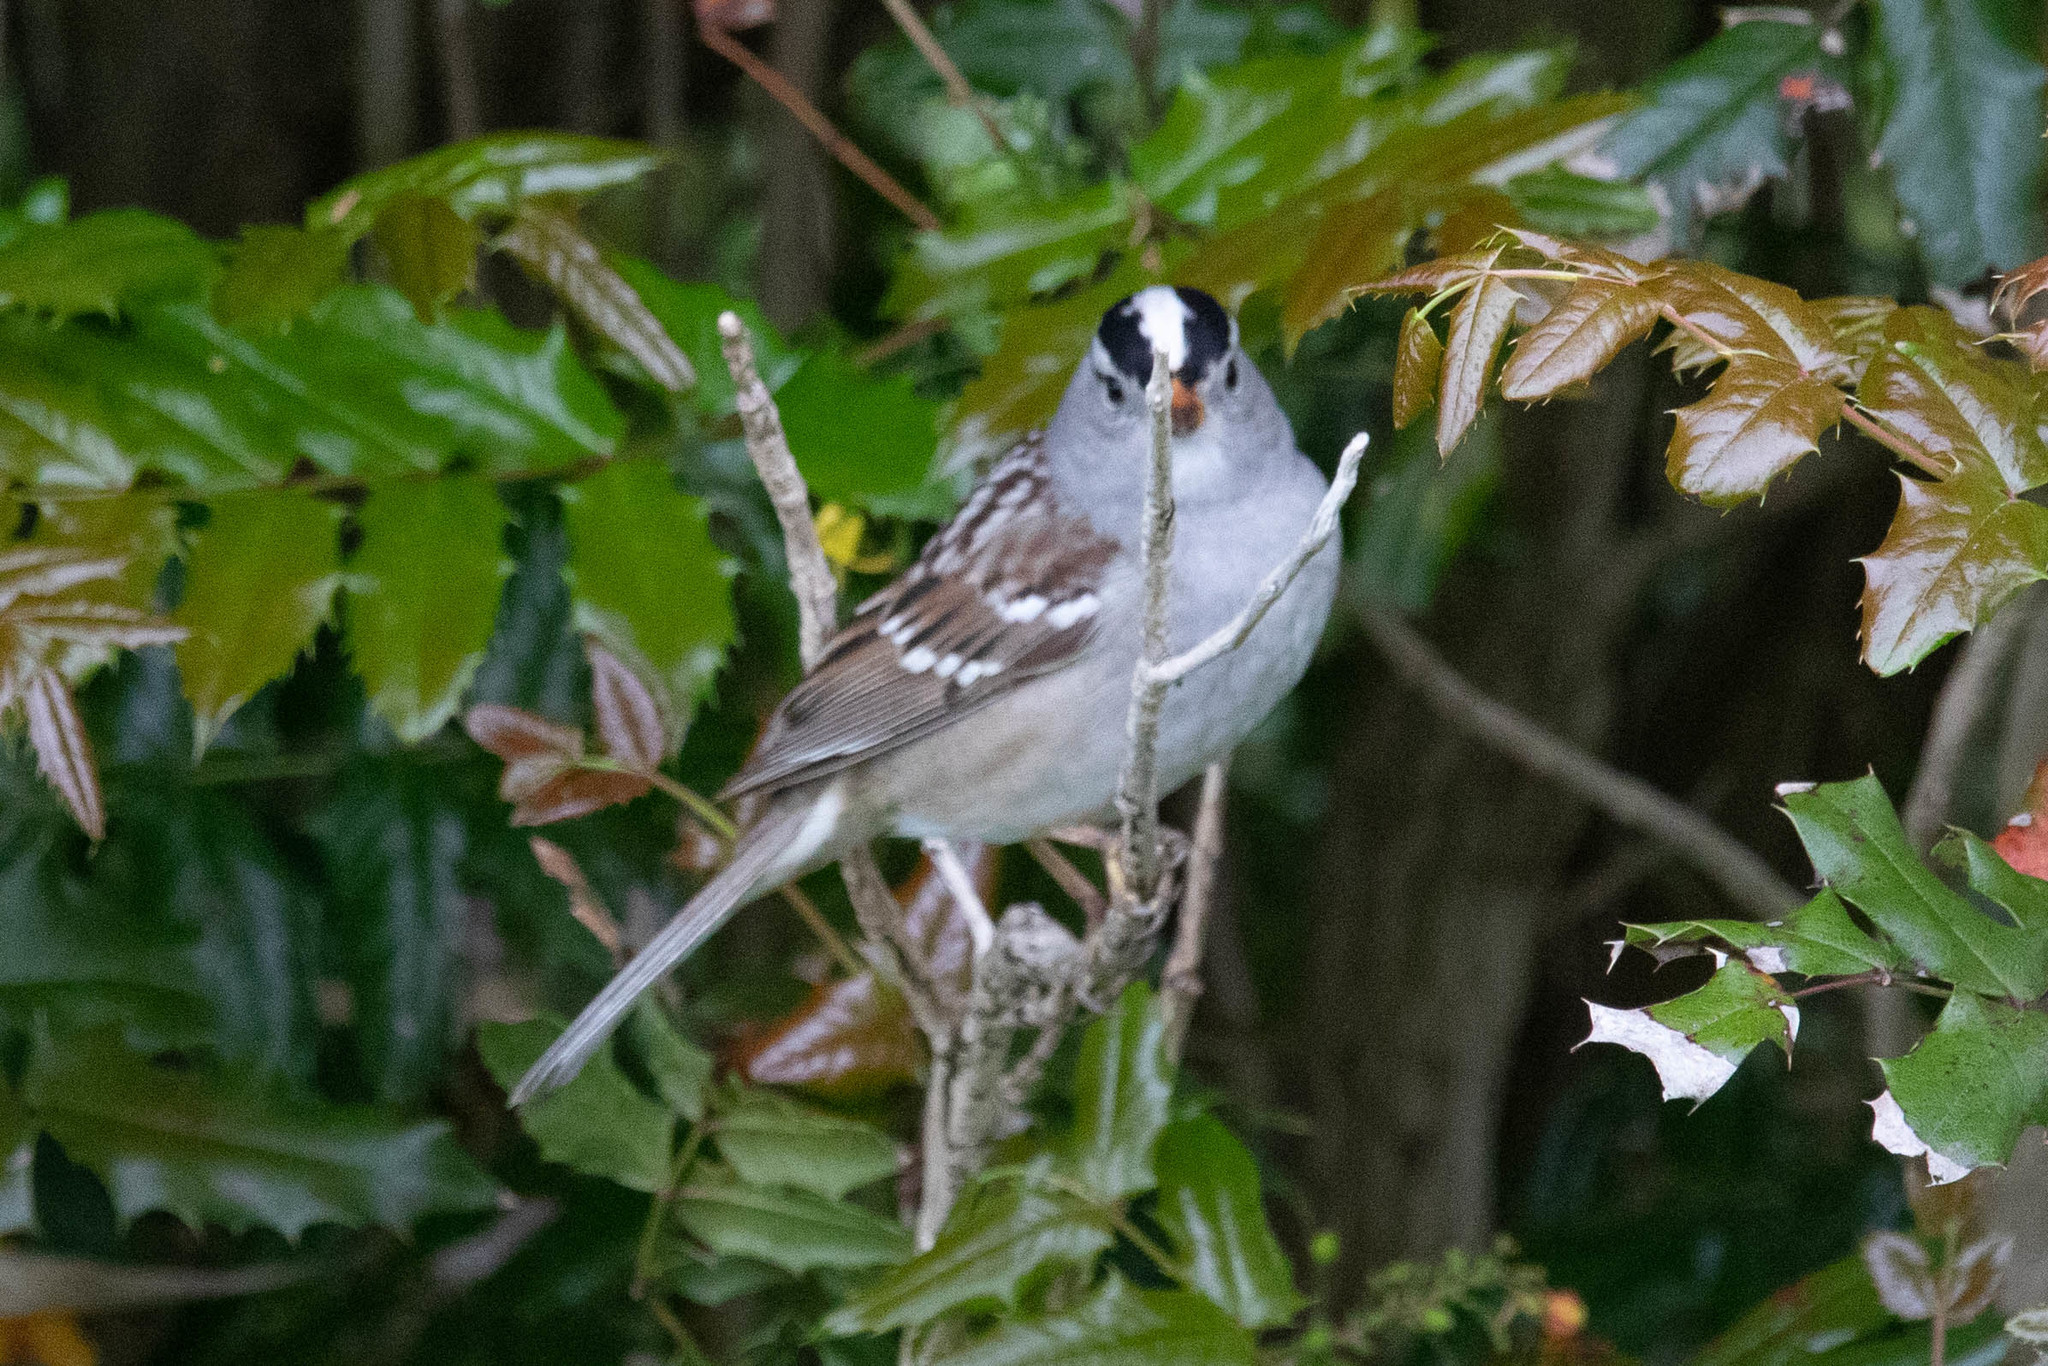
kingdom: Animalia
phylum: Chordata
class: Aves
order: Passeriformes
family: Passerellidae
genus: Zonotrichia
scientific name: Zonotrichia leucophrys
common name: White-crowned sparrow
